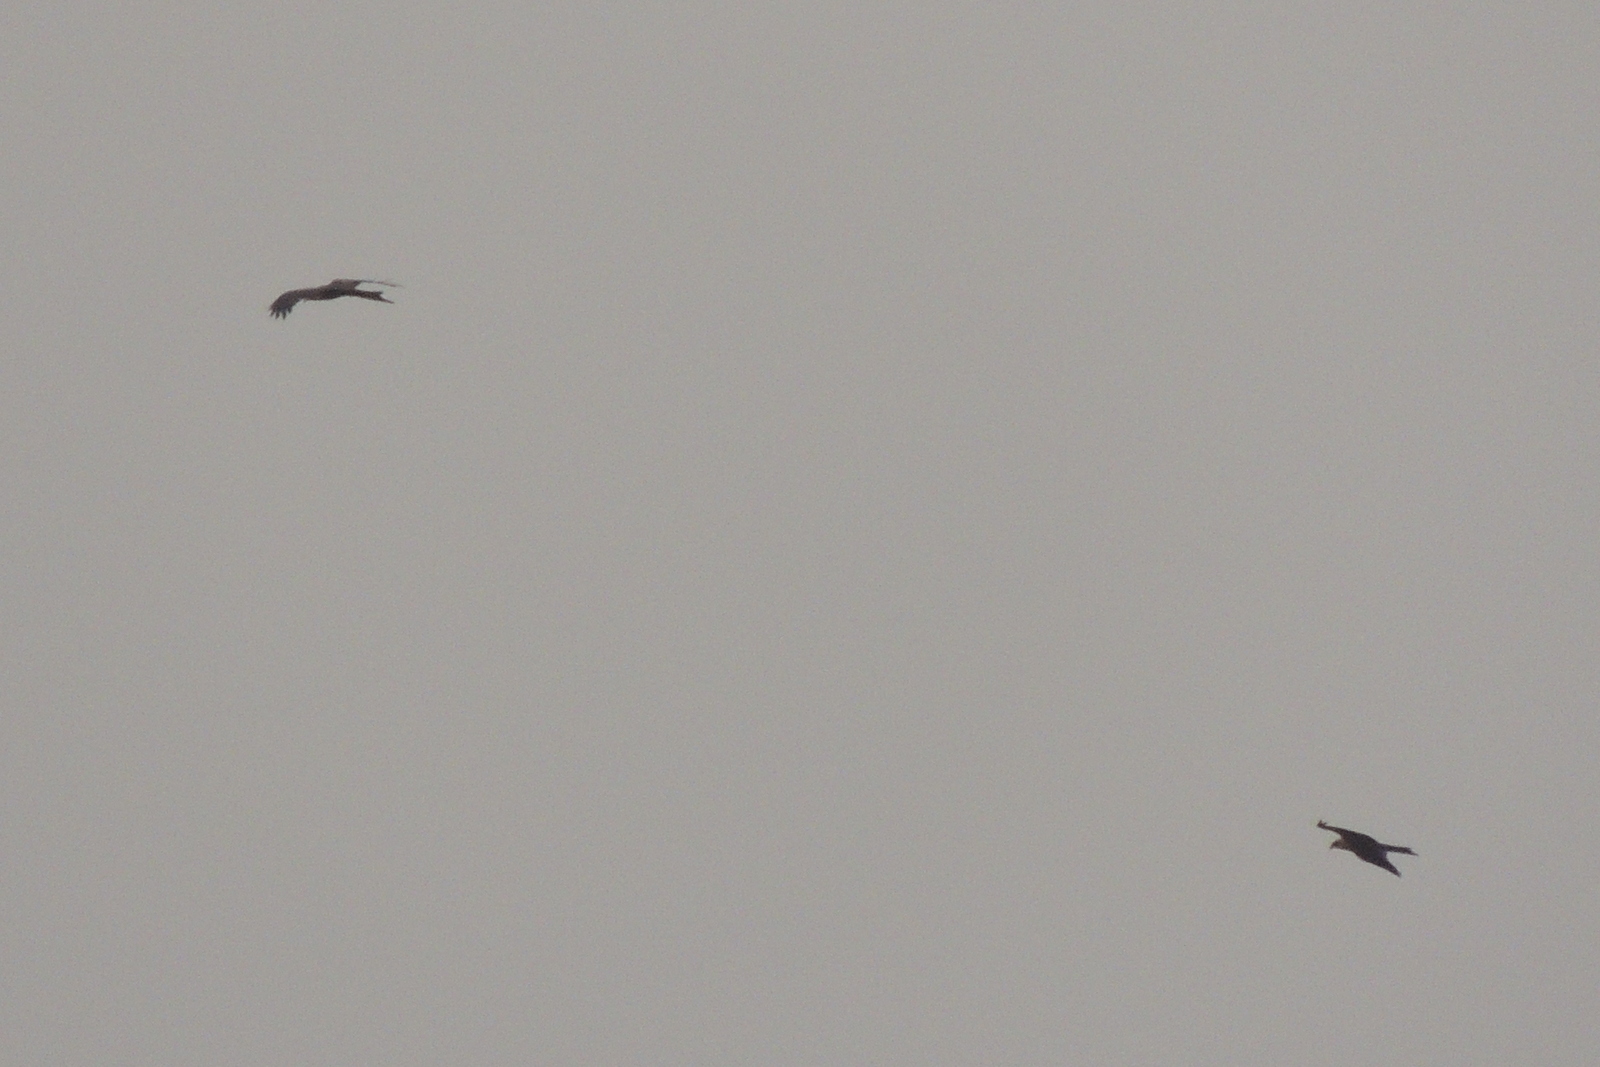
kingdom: Animalia
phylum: Chordata
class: Aves
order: Accipitriformes
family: Accipitridae
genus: Milvus
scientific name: Milvus migrans
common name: Black kite
